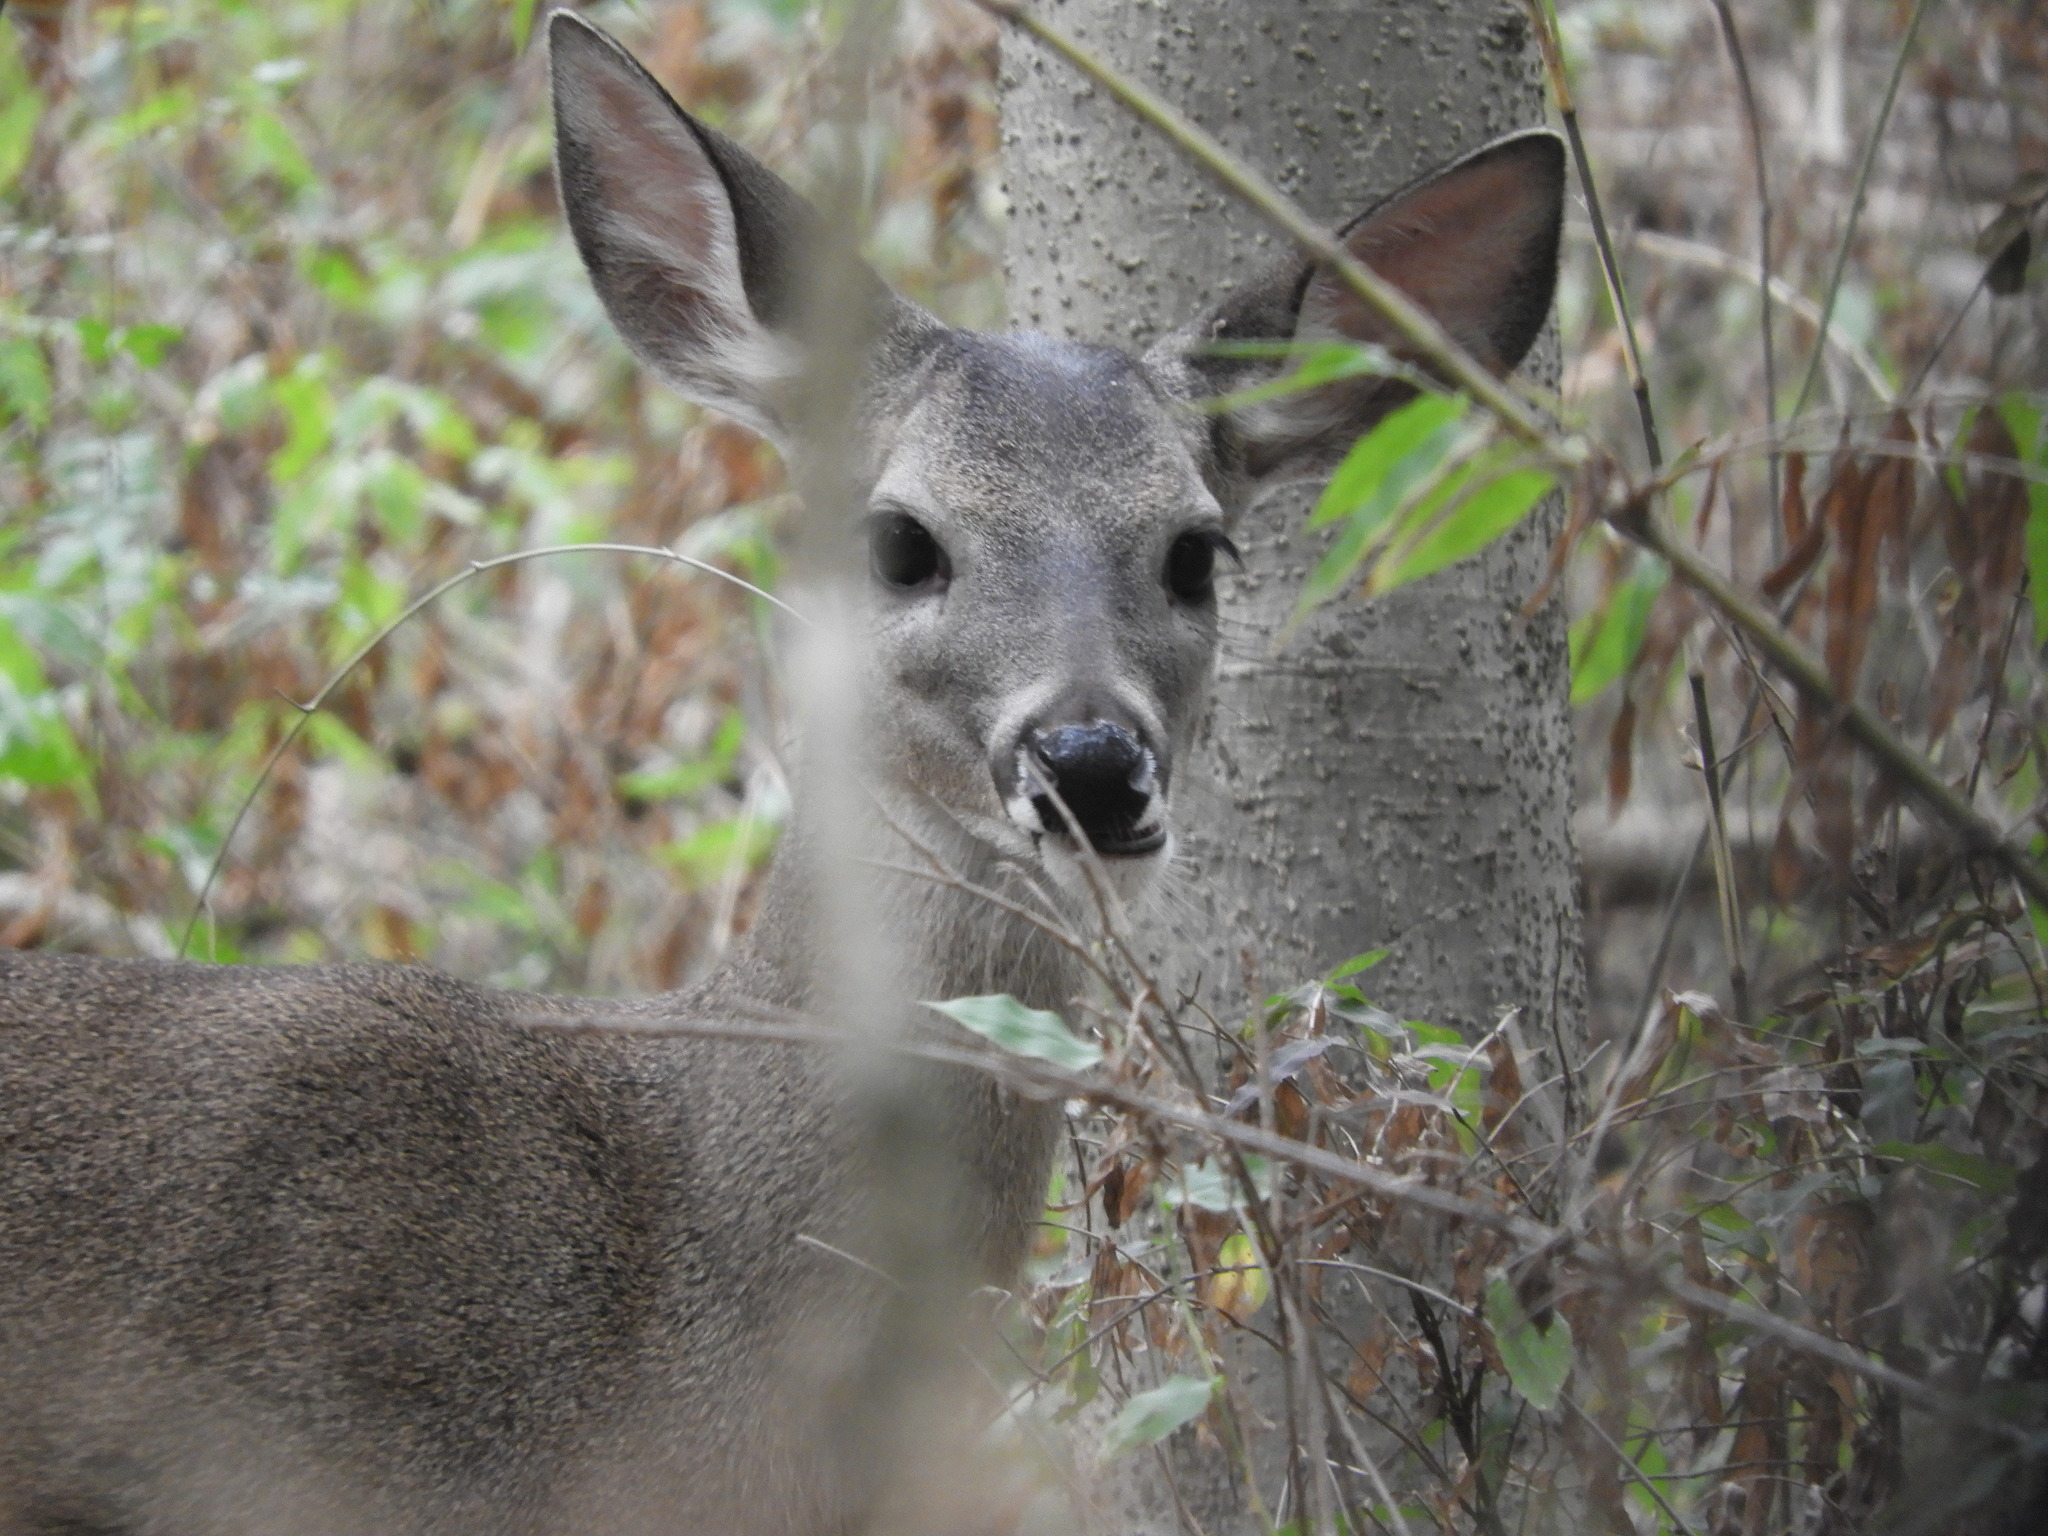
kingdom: Animalia
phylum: Chordata
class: Mammalia
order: Artiodactyla
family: Cervidae
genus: Odocoileus
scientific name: Odocoileus virginianus
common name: White-tailed deer
